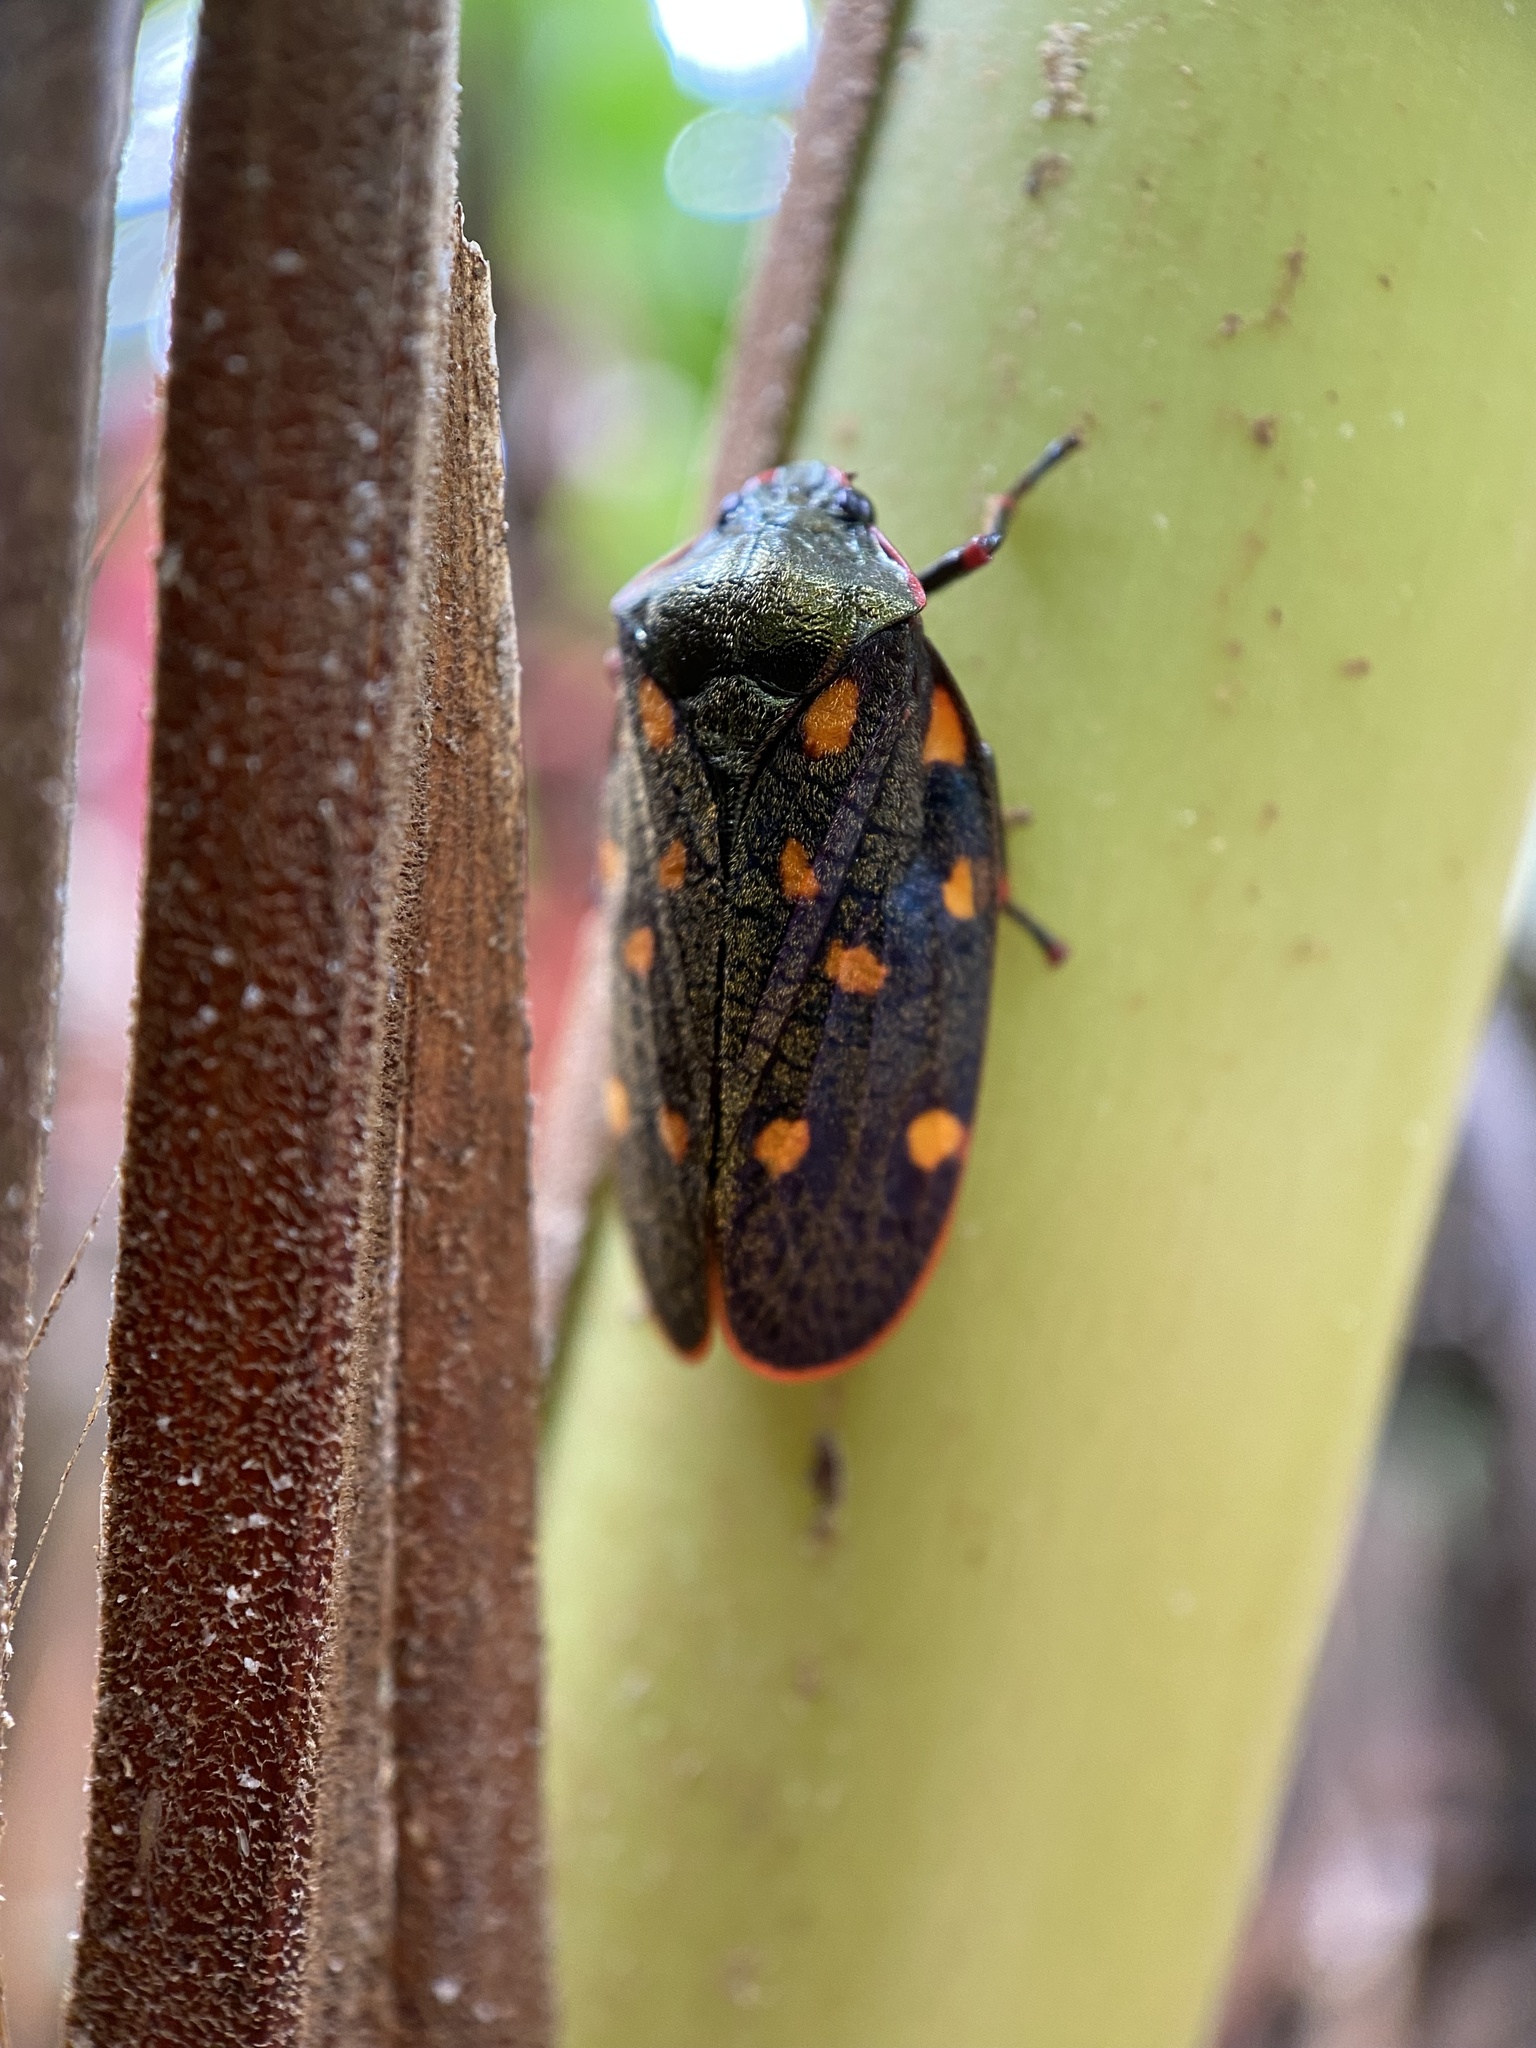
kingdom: Animalia
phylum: Arthropoda
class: Insecta
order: Hemiptera
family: Cercopidae
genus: Mahanarva
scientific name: Mahanarva costaricensis
